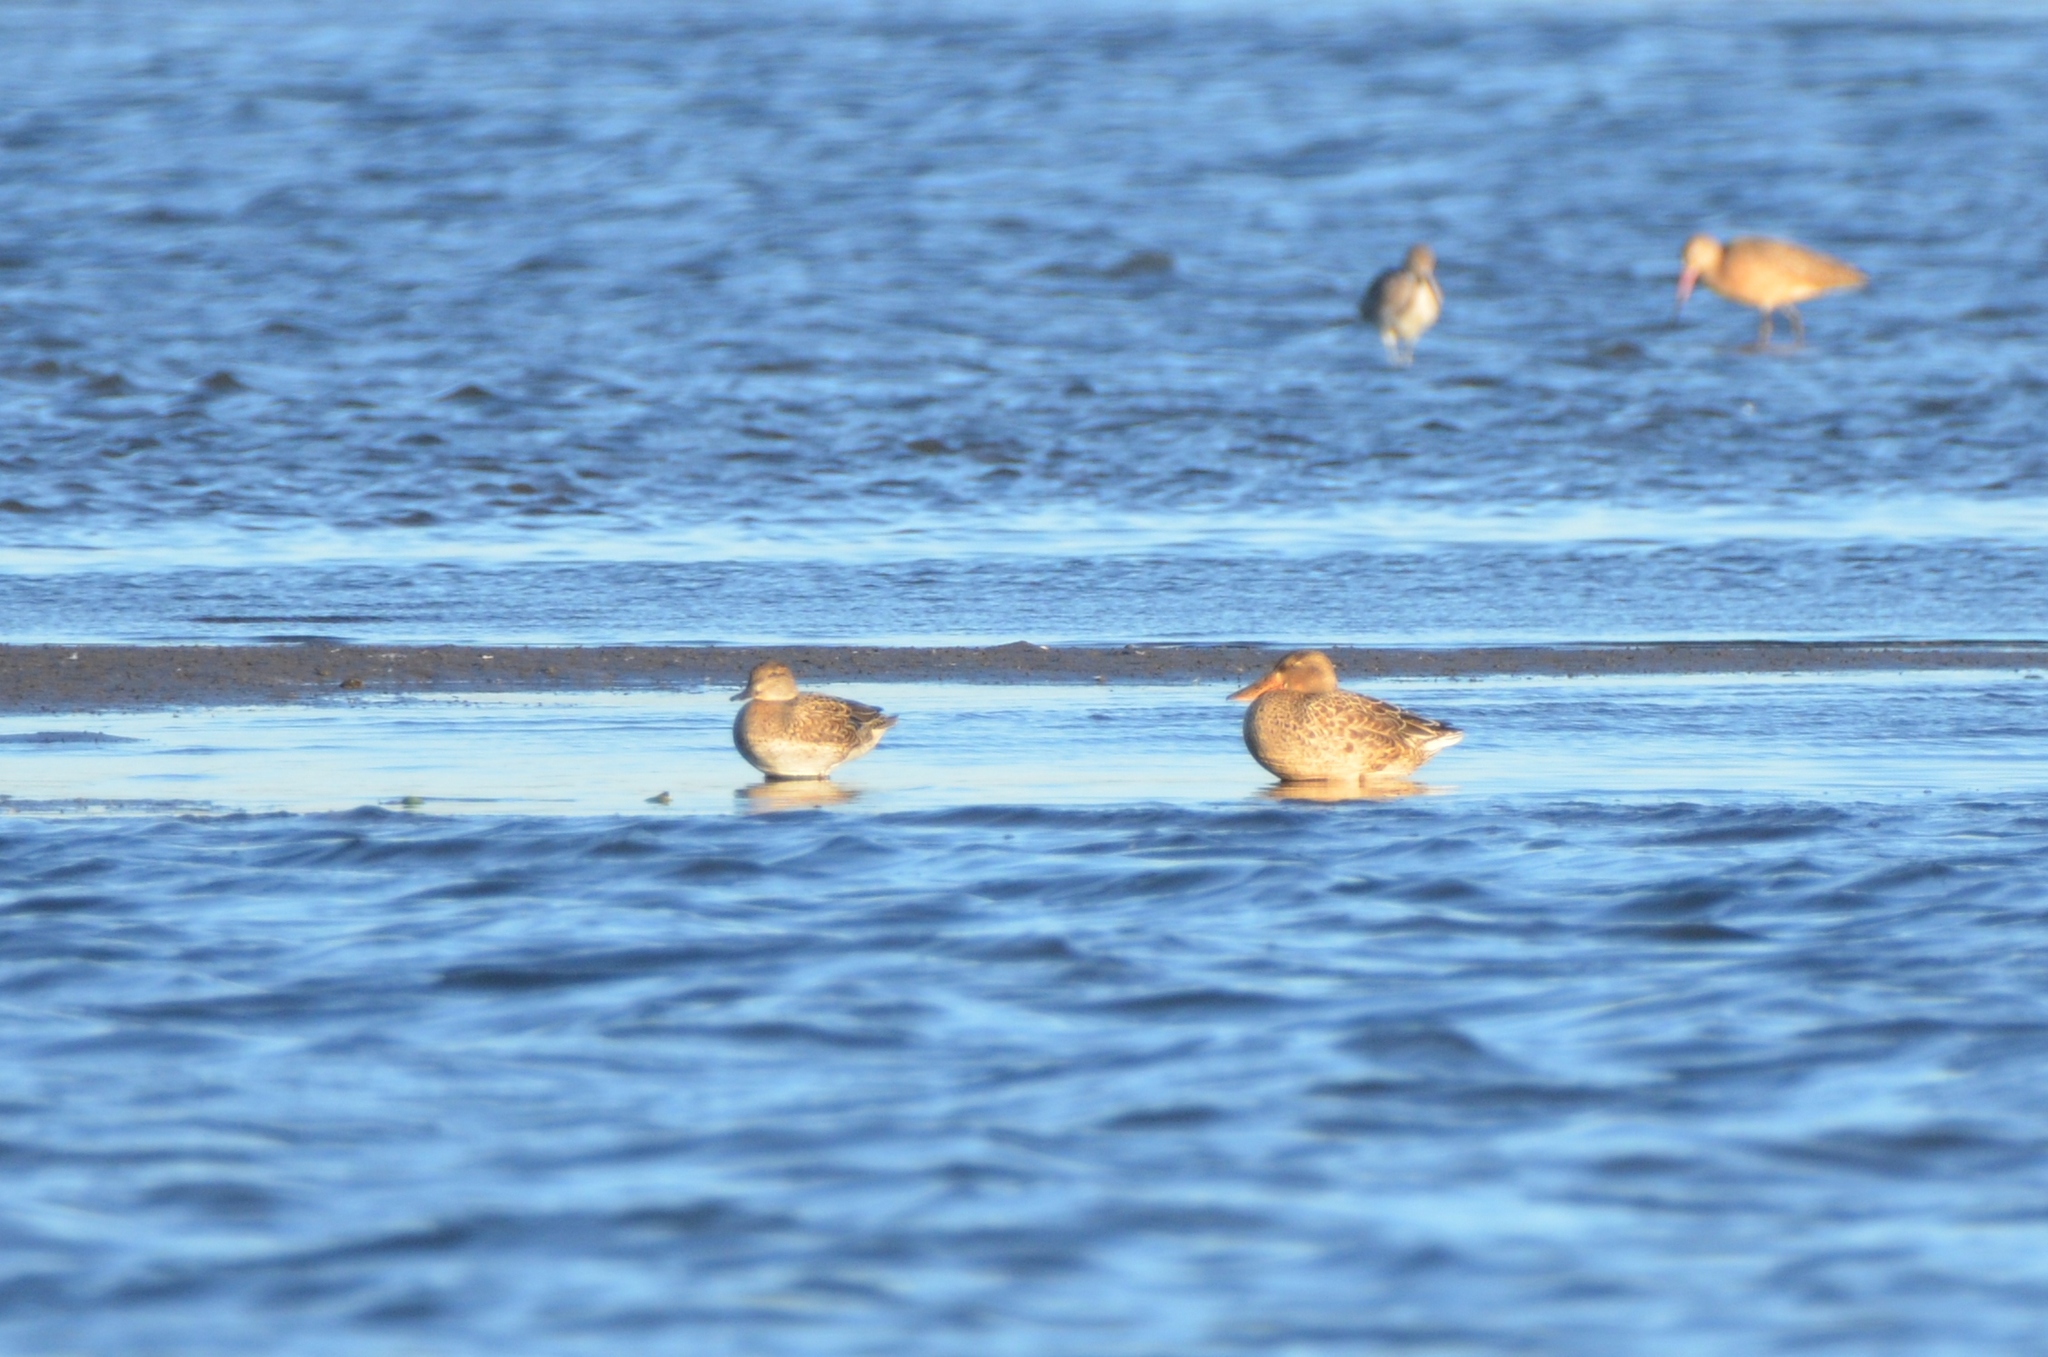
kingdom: Animalia
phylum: Chordata
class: Aves
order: Anseriformes
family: Anatidae
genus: Anas
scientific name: Anas crecca
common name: Eurasian teal
